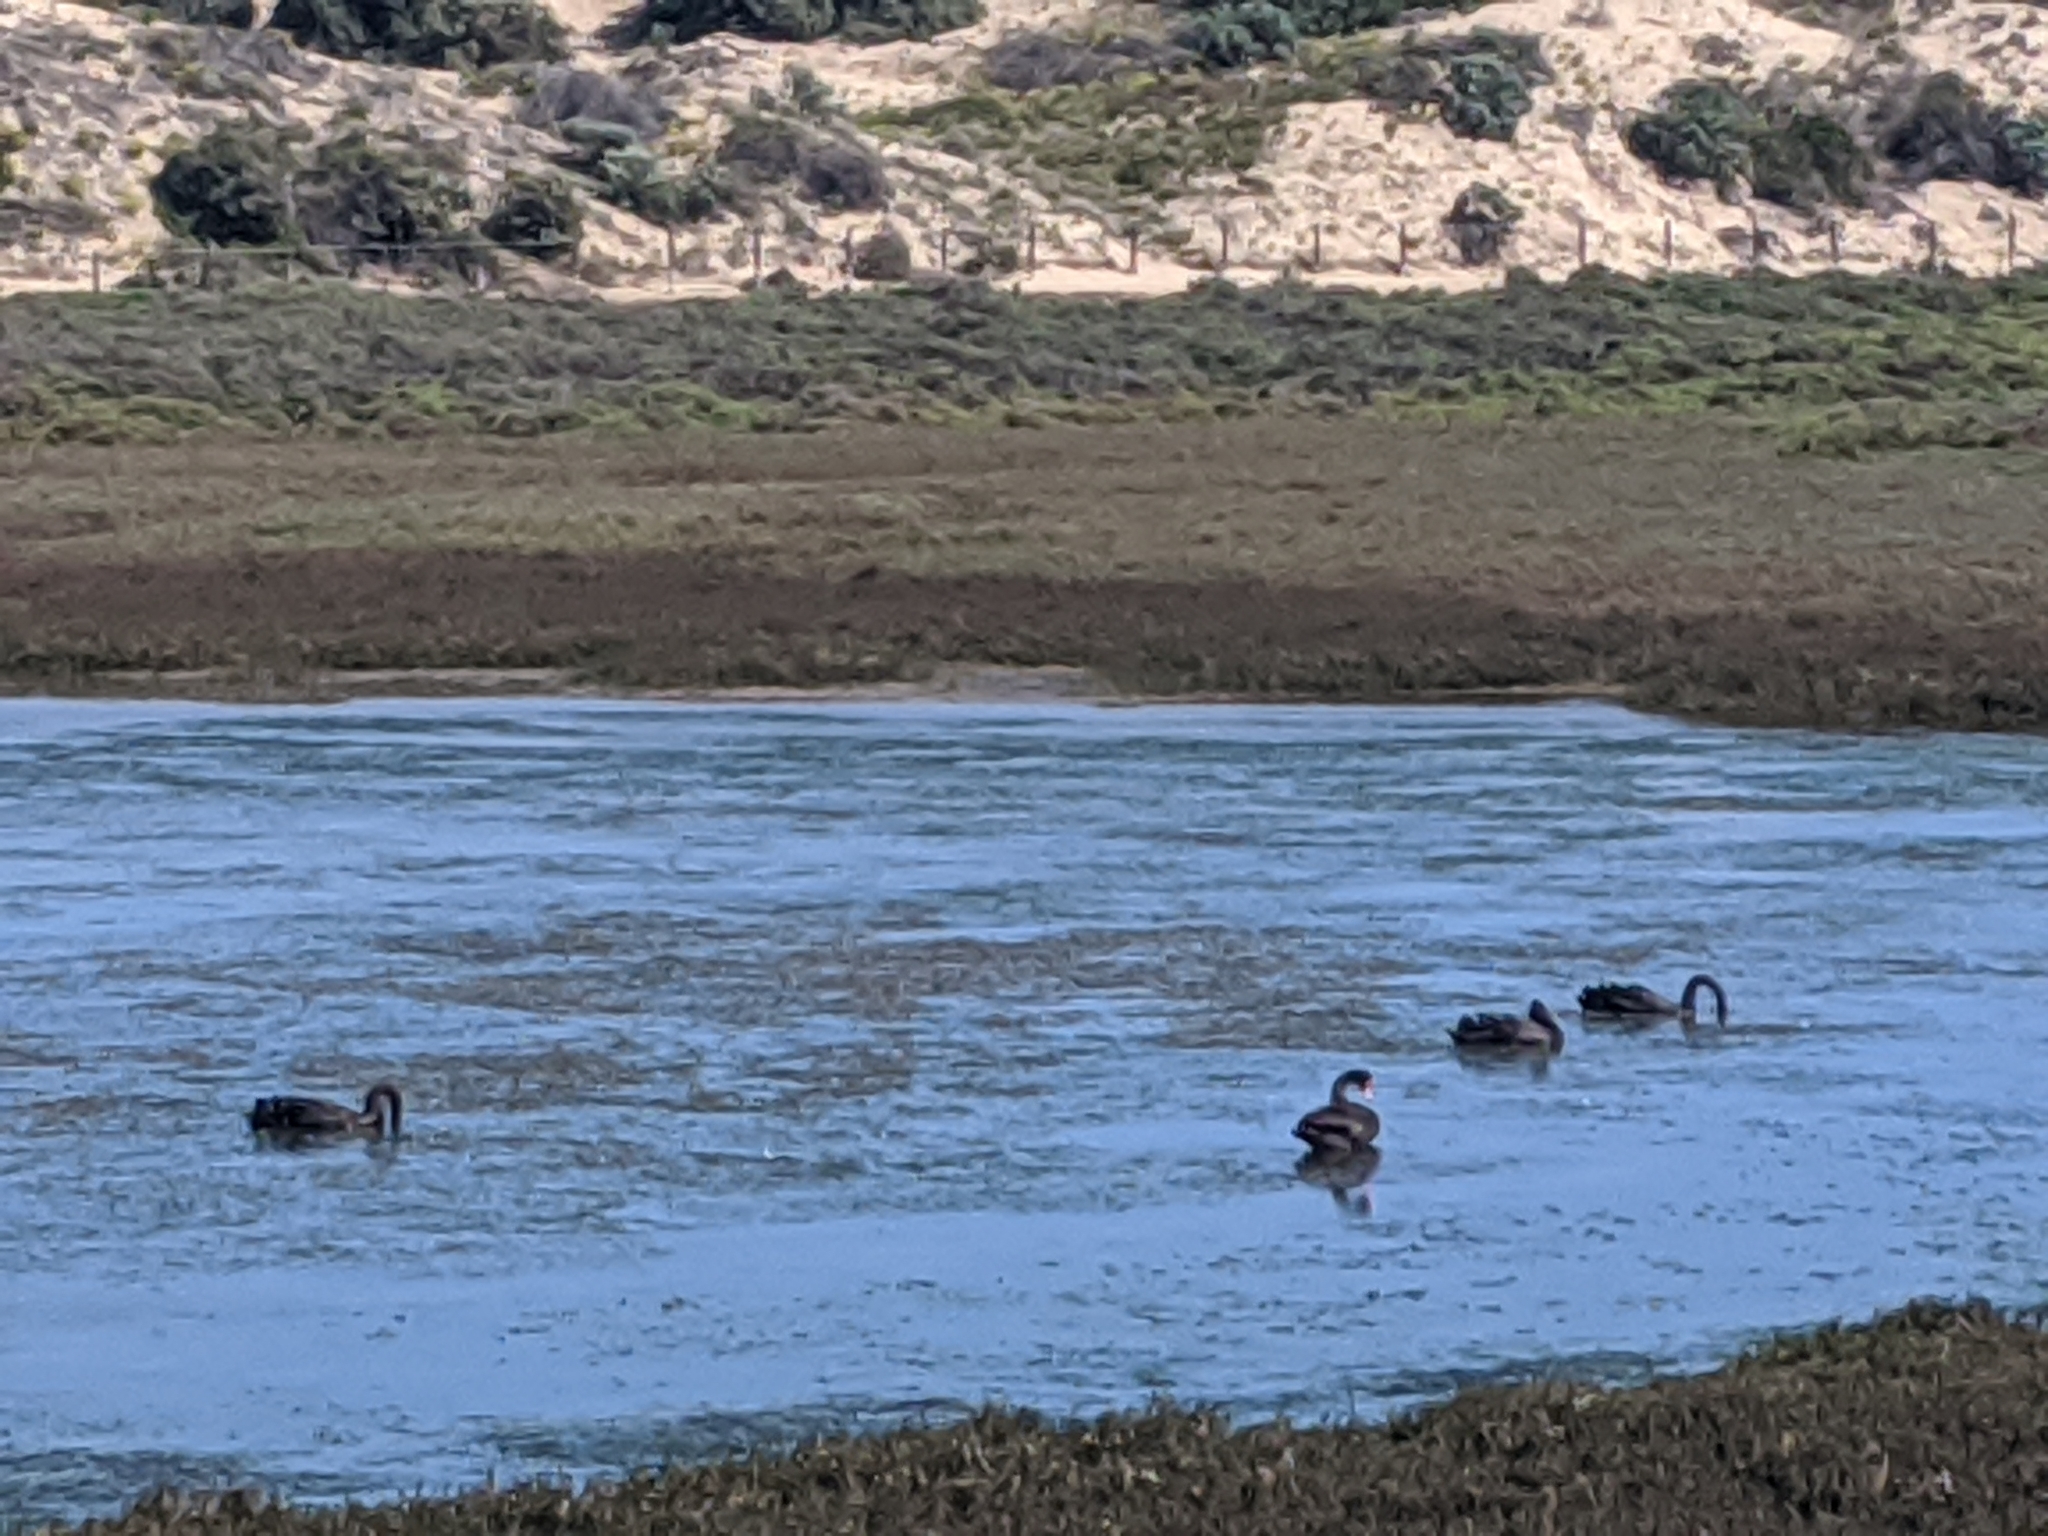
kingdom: Animalia
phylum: Chordata
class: Aves
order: Anseriformes
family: Anatidae
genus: Cygnus
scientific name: Cygnus atratus
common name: Black swan
